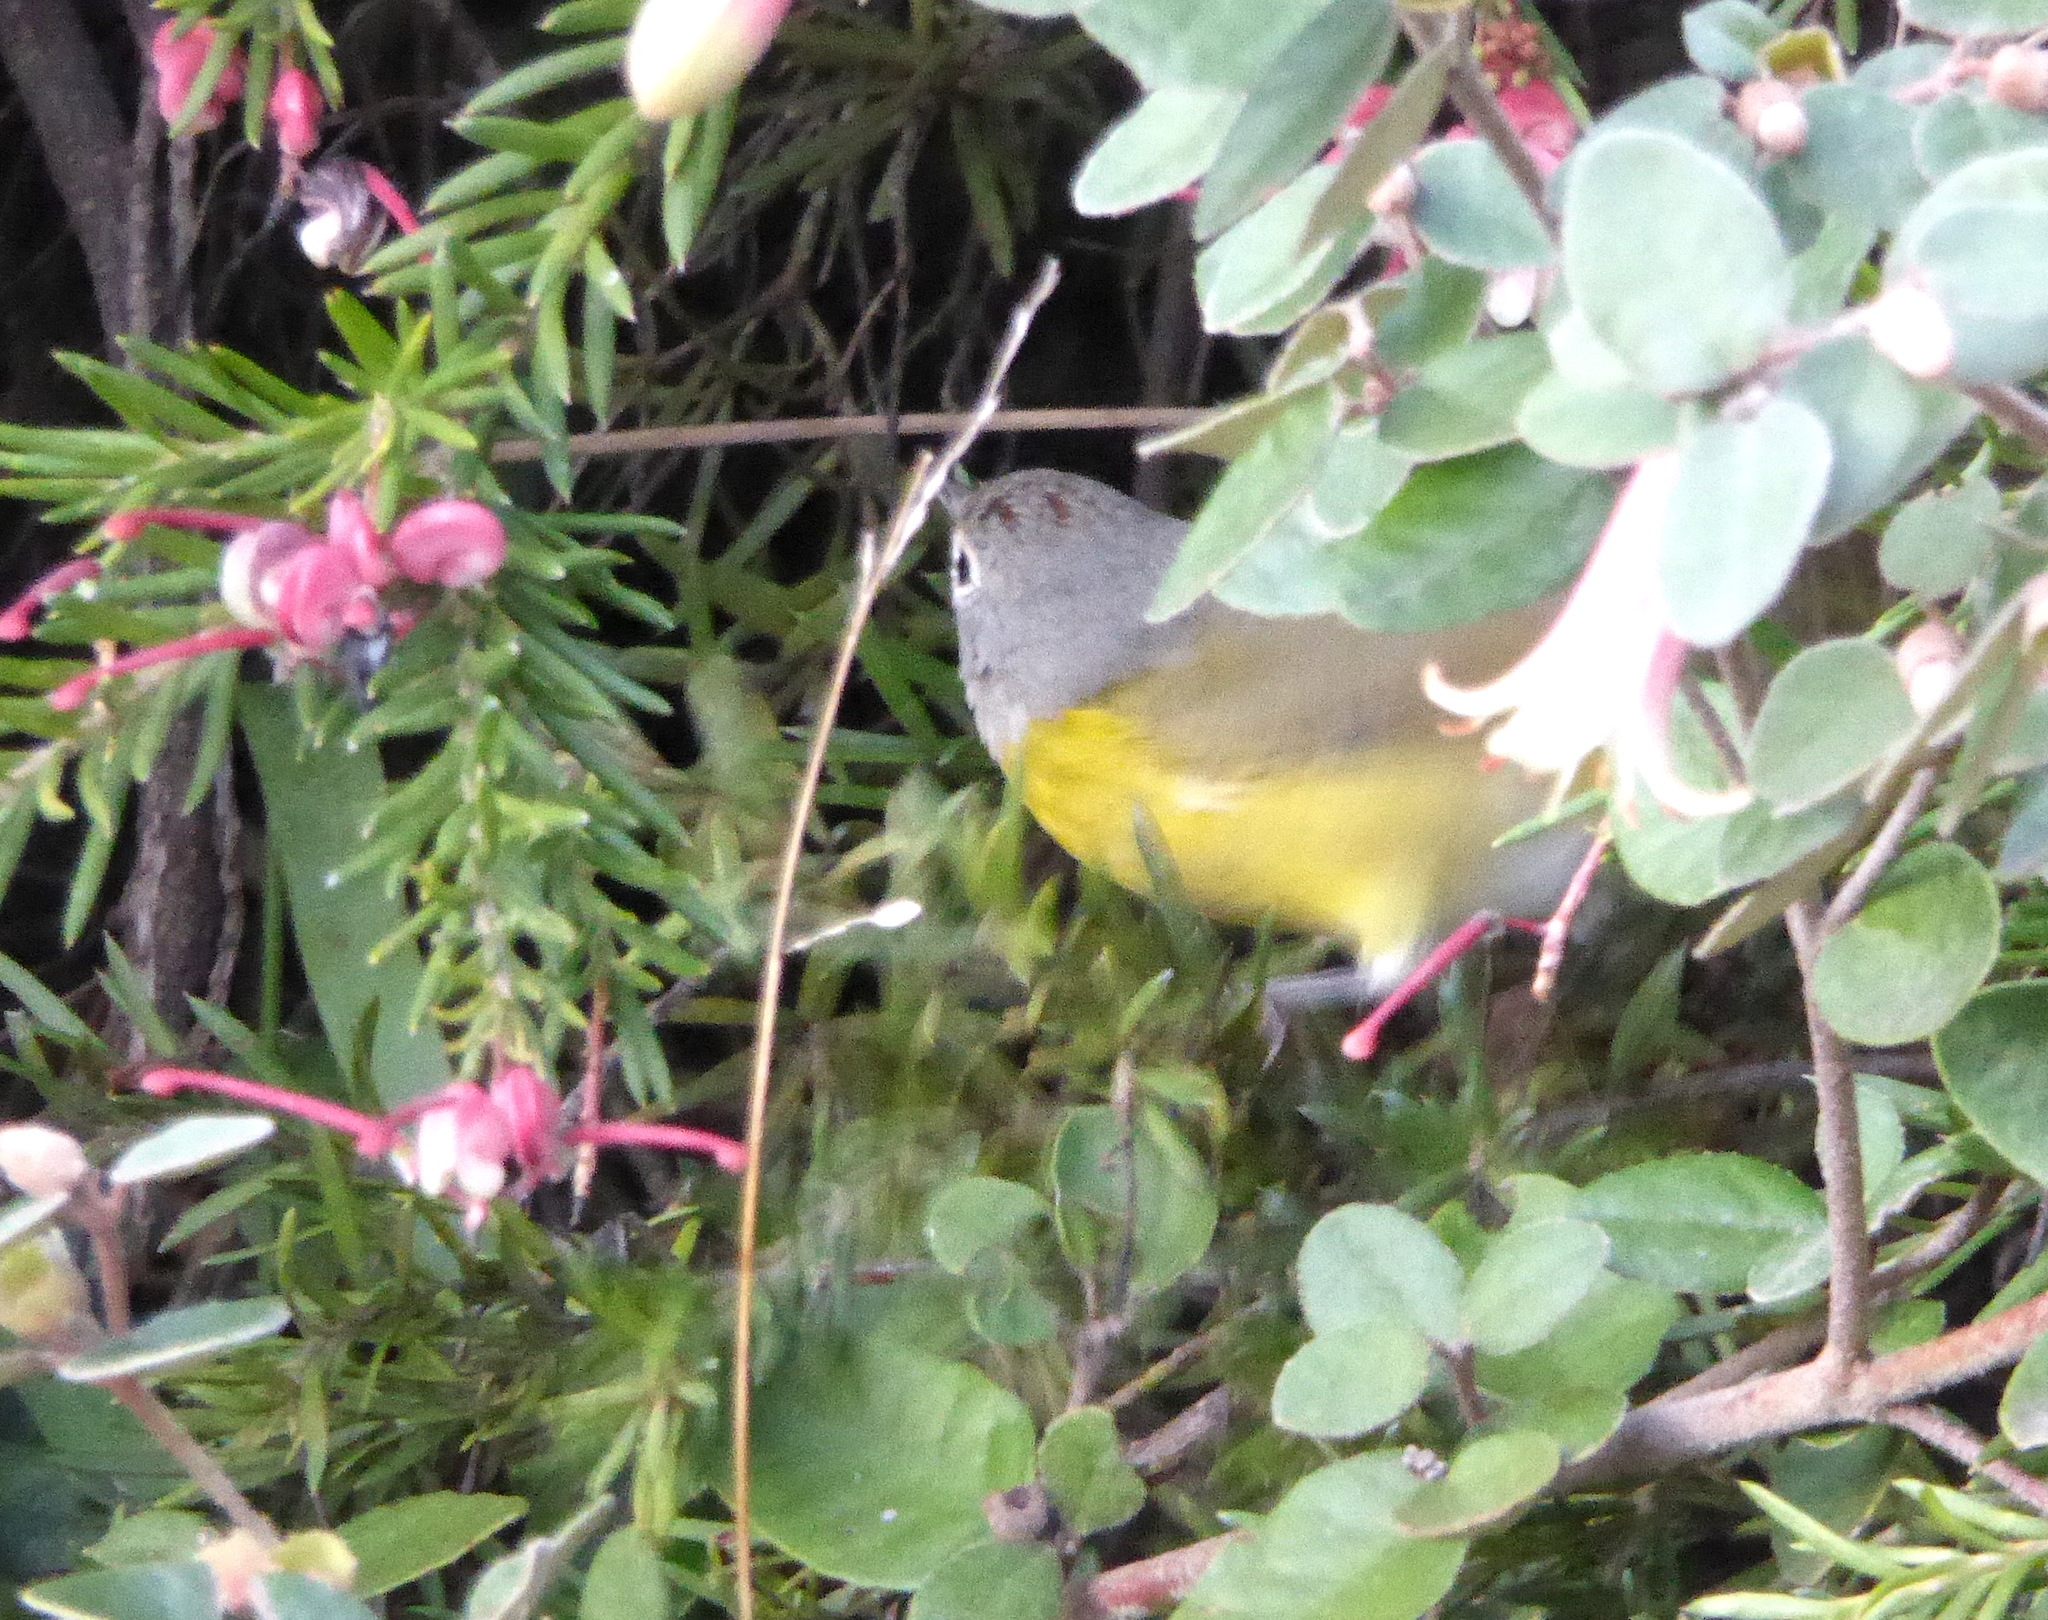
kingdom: Animalia
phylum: Chordata
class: Aves
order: Passeriformes
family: Parulidae
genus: Leiothlypis
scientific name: Leiothlypis ruficapilla
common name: Nashville warbler
